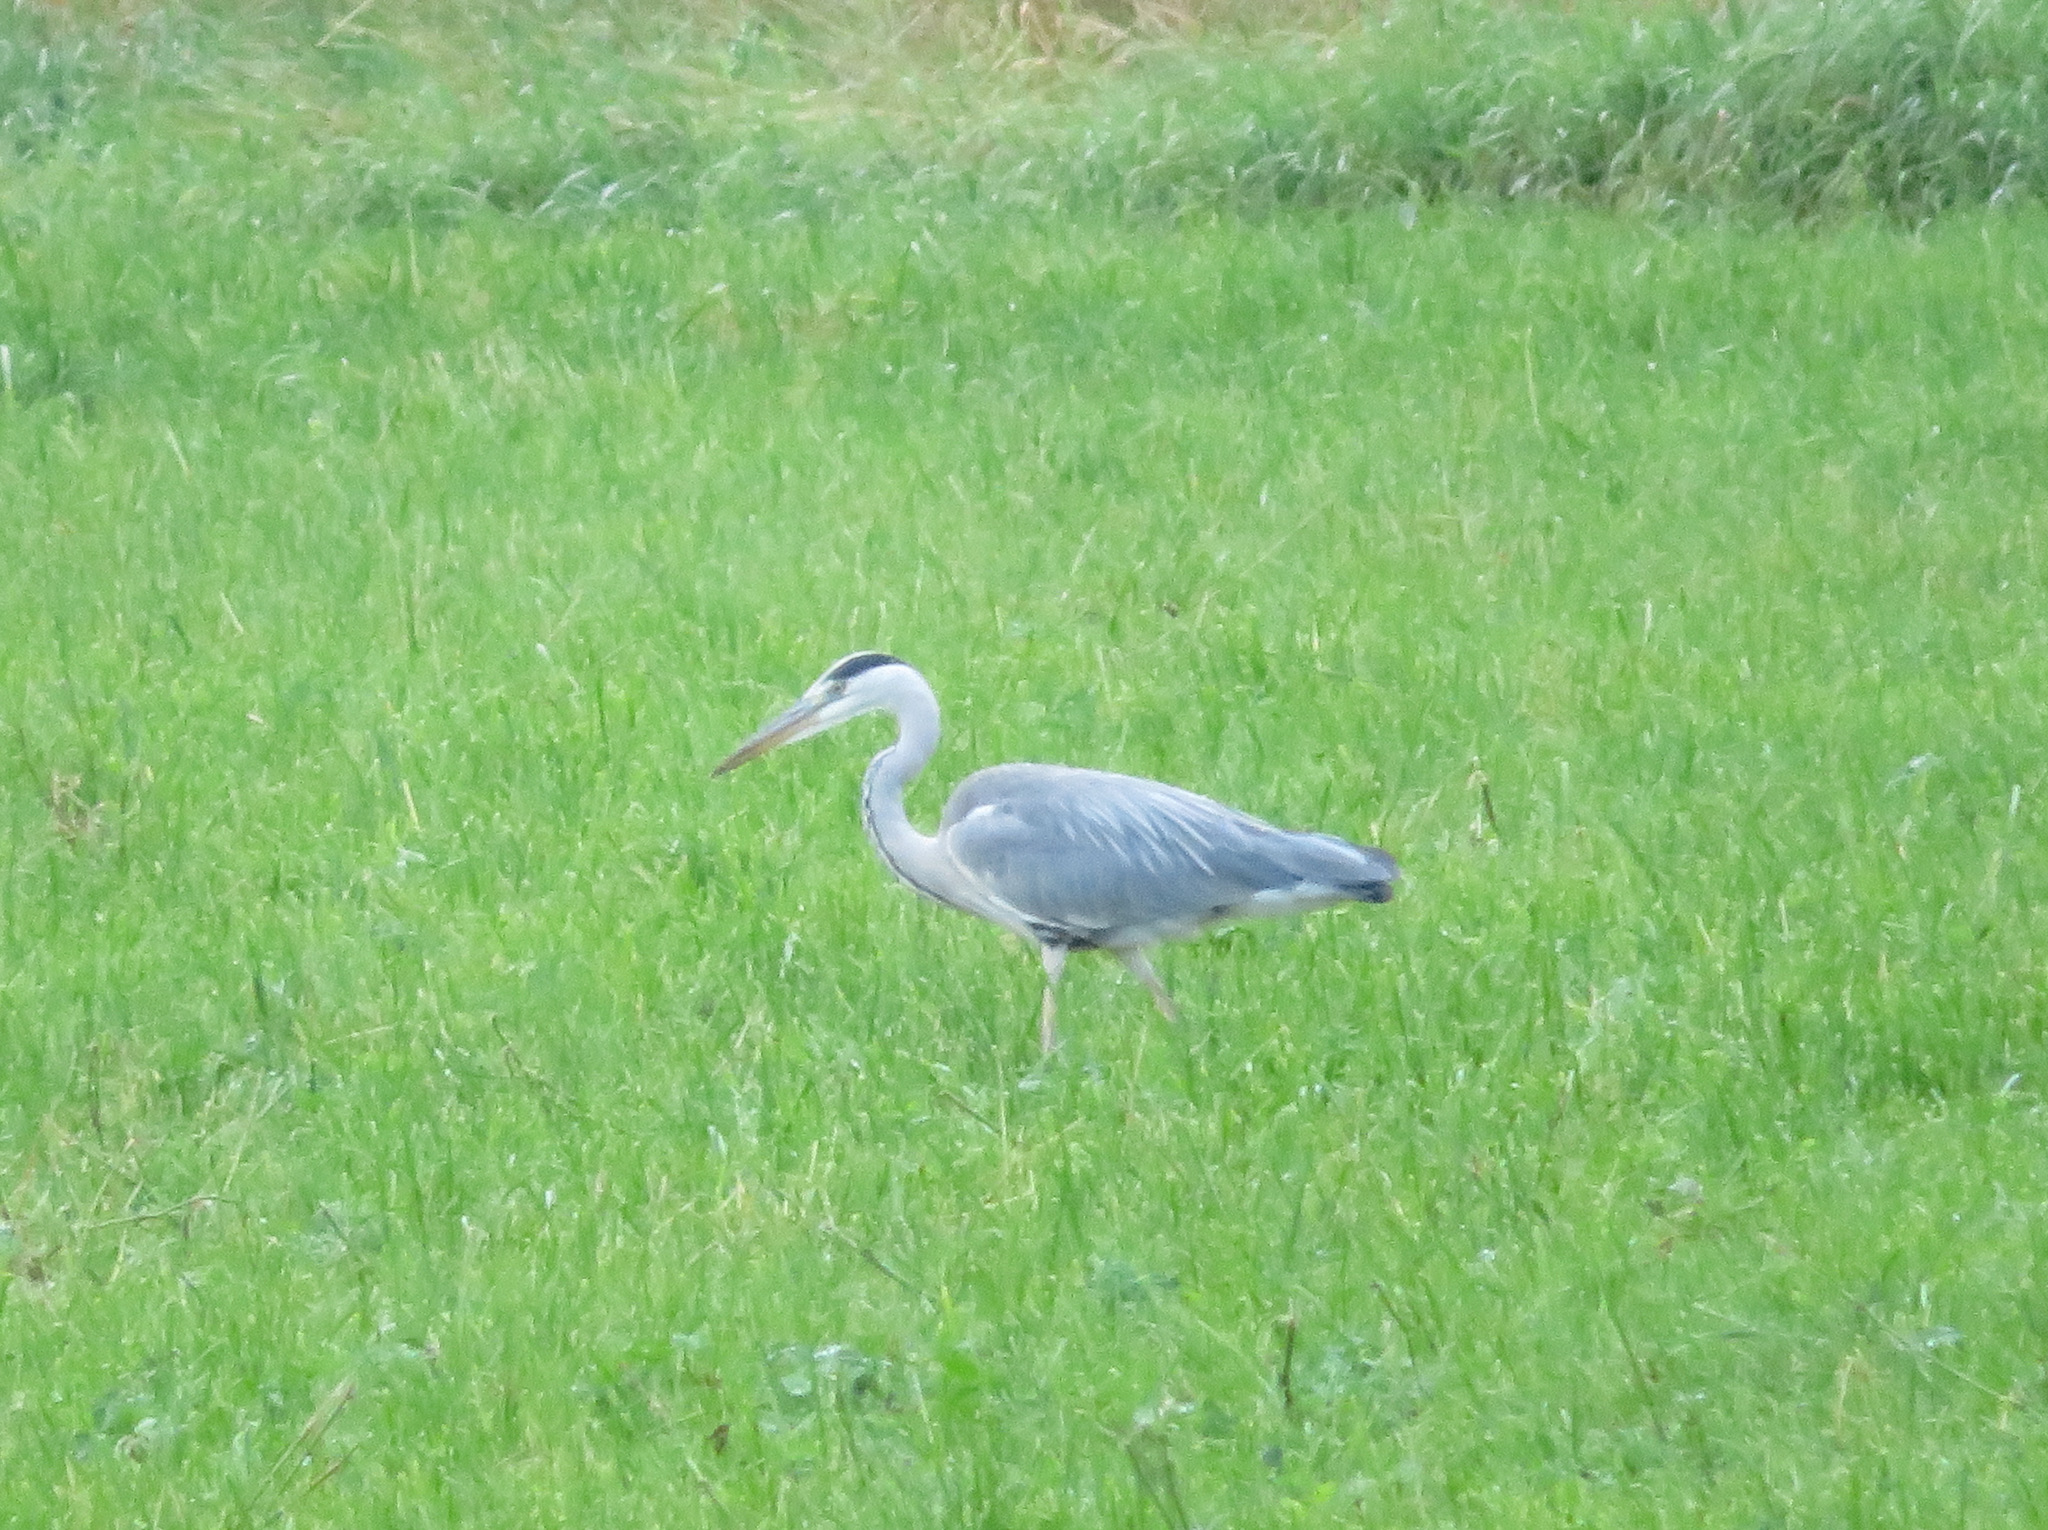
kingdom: Animalia
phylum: Chordata
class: Aves
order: Pelecaniformes
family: Ardeidae
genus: Ardea
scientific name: Ardea cinerea
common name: Grey heron
